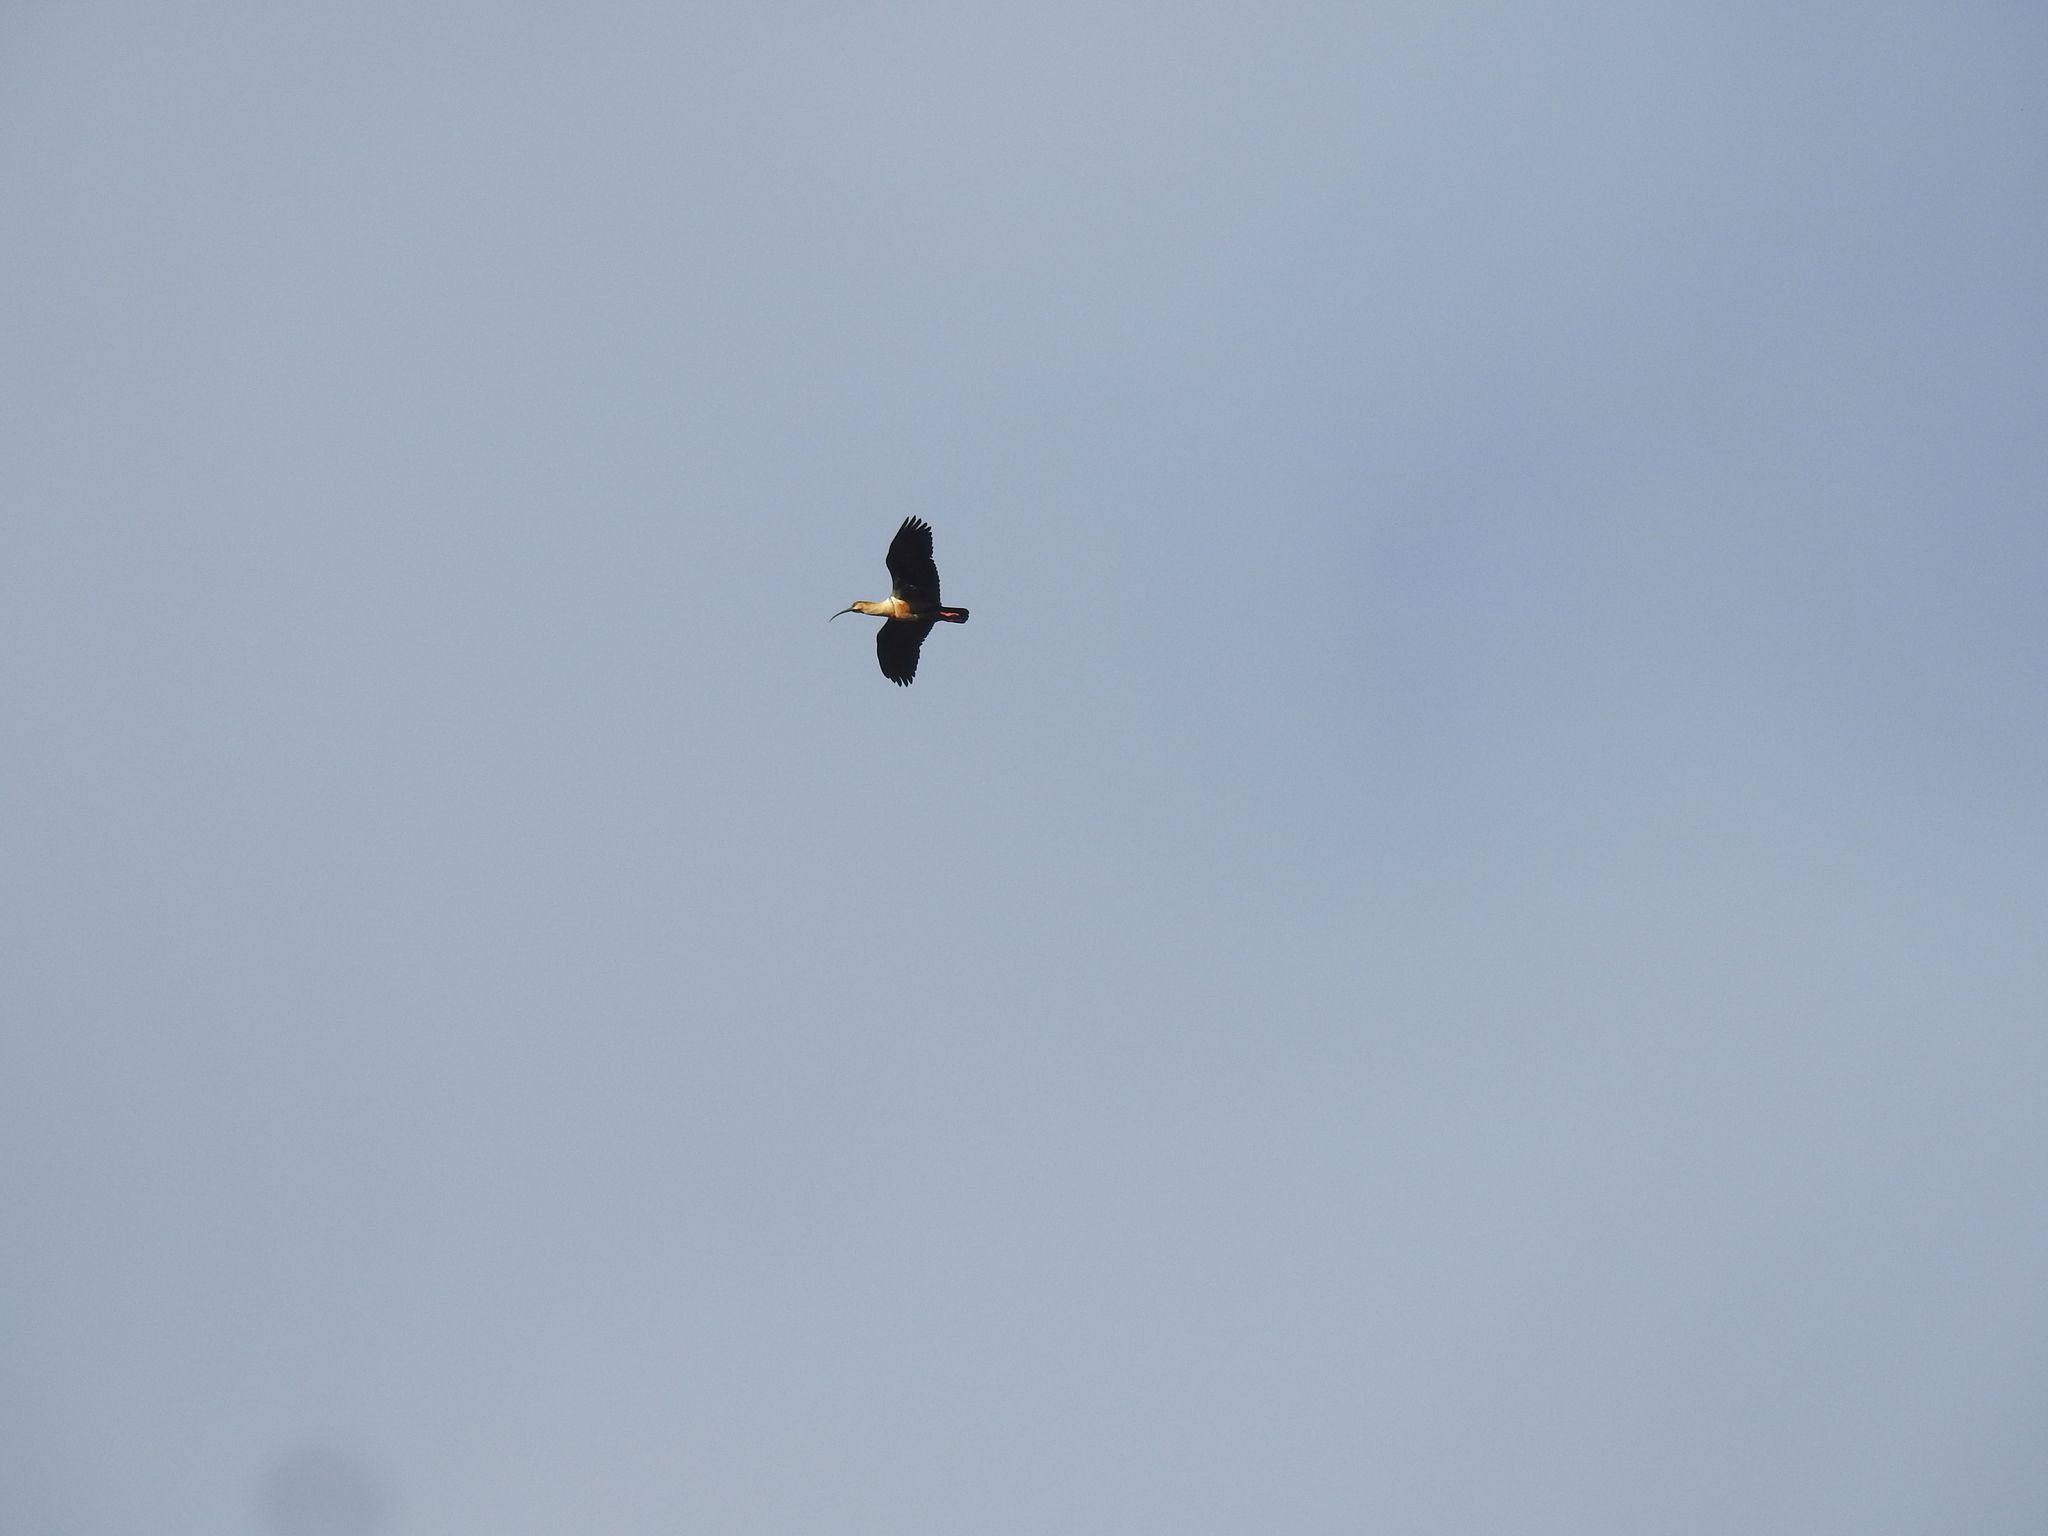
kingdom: Animalia
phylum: Chordata
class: Aves
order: Pelecaniformes
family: Threskiornithidae
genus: Theristicus
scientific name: Theristicus melanopis
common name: Black-faced ibis
